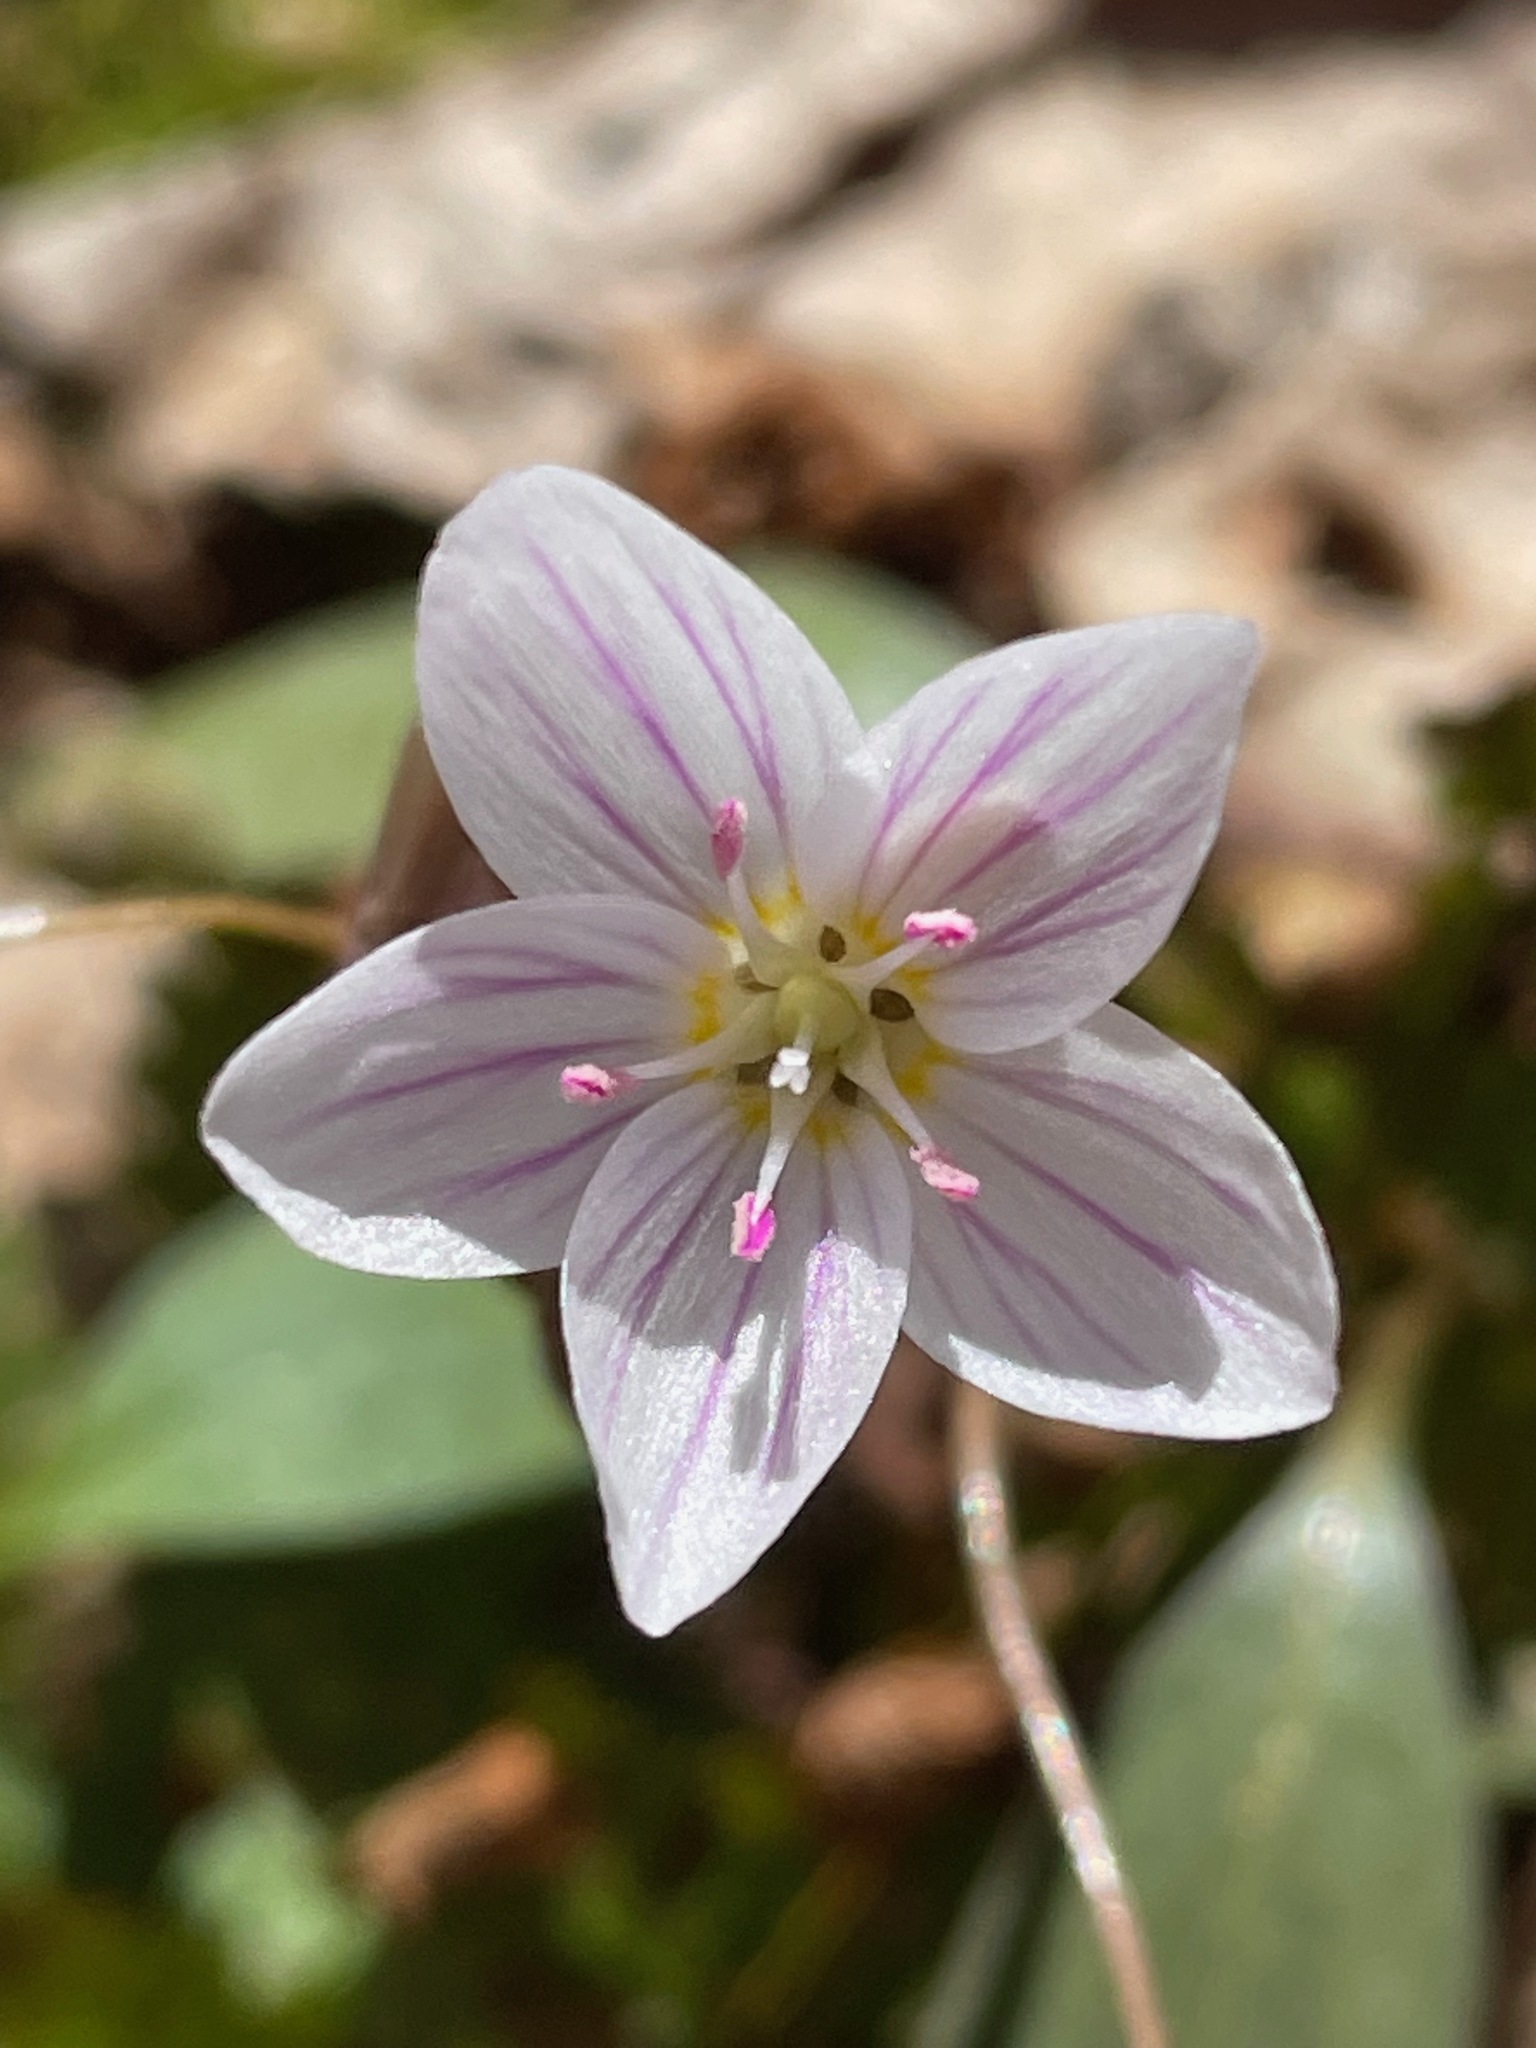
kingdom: Plantae
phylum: Tracheophyta
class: Magnoliopsida
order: Caryophyllales
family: Montiaceae
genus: Claytonia
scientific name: Claytonia caroliniana
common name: Carolina spring beauty
